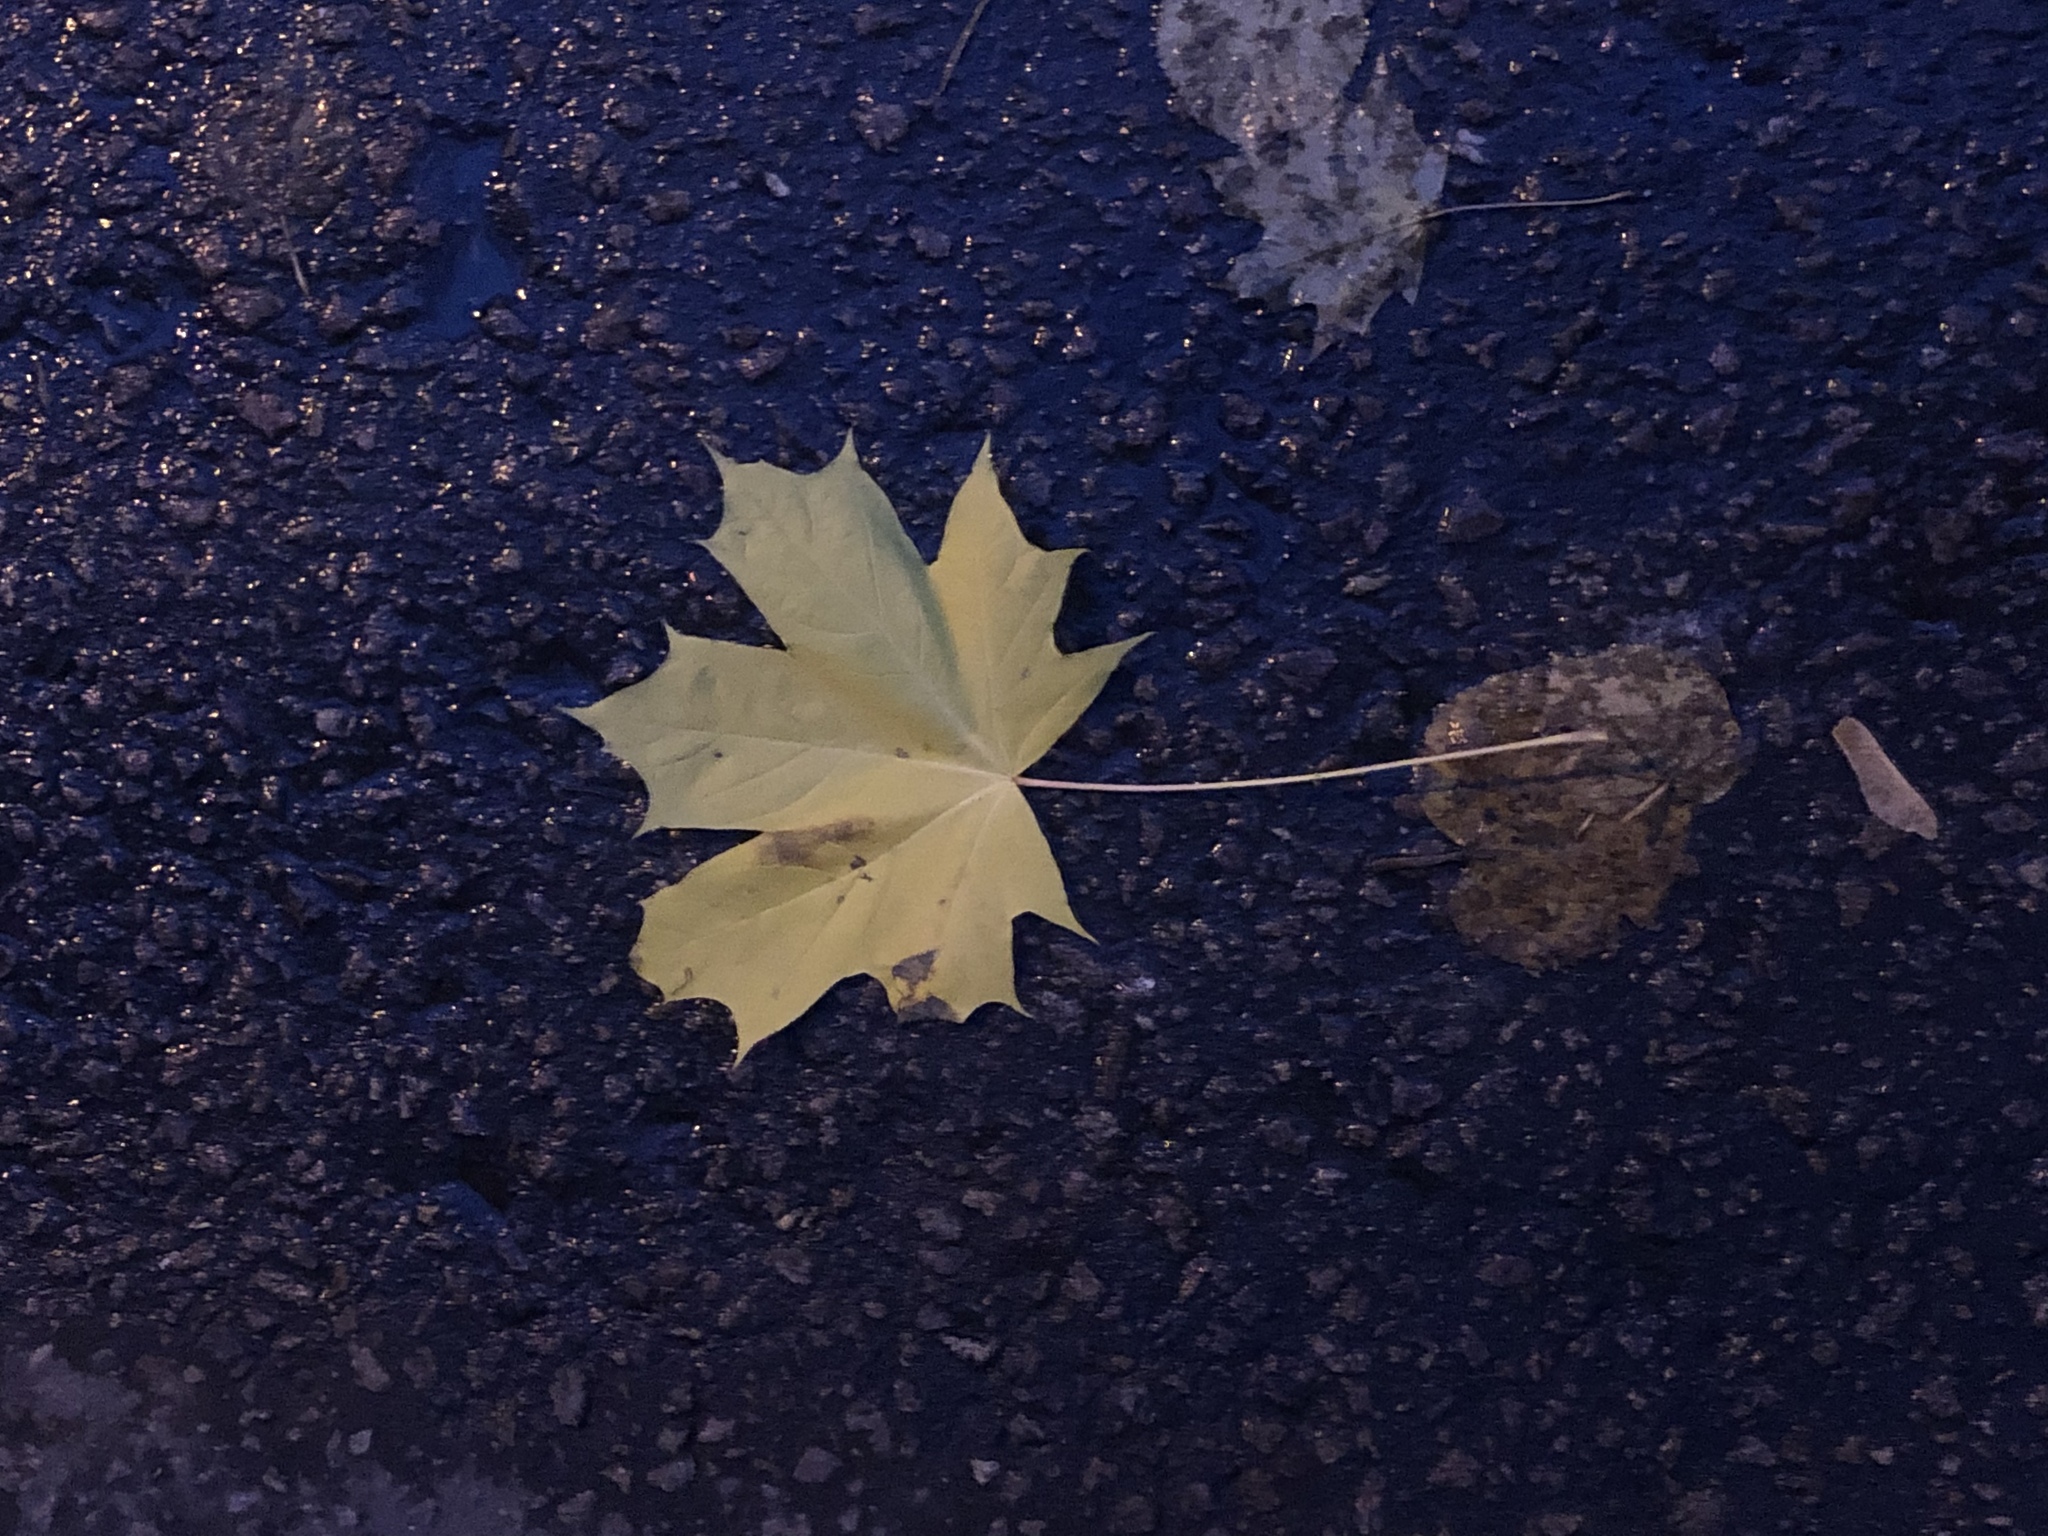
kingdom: Plantae
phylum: Tracheophyta
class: Magnoliopsida
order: Sapindales
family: Sapindaceae
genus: Acer
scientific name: Acer platanoides
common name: Norway maple
